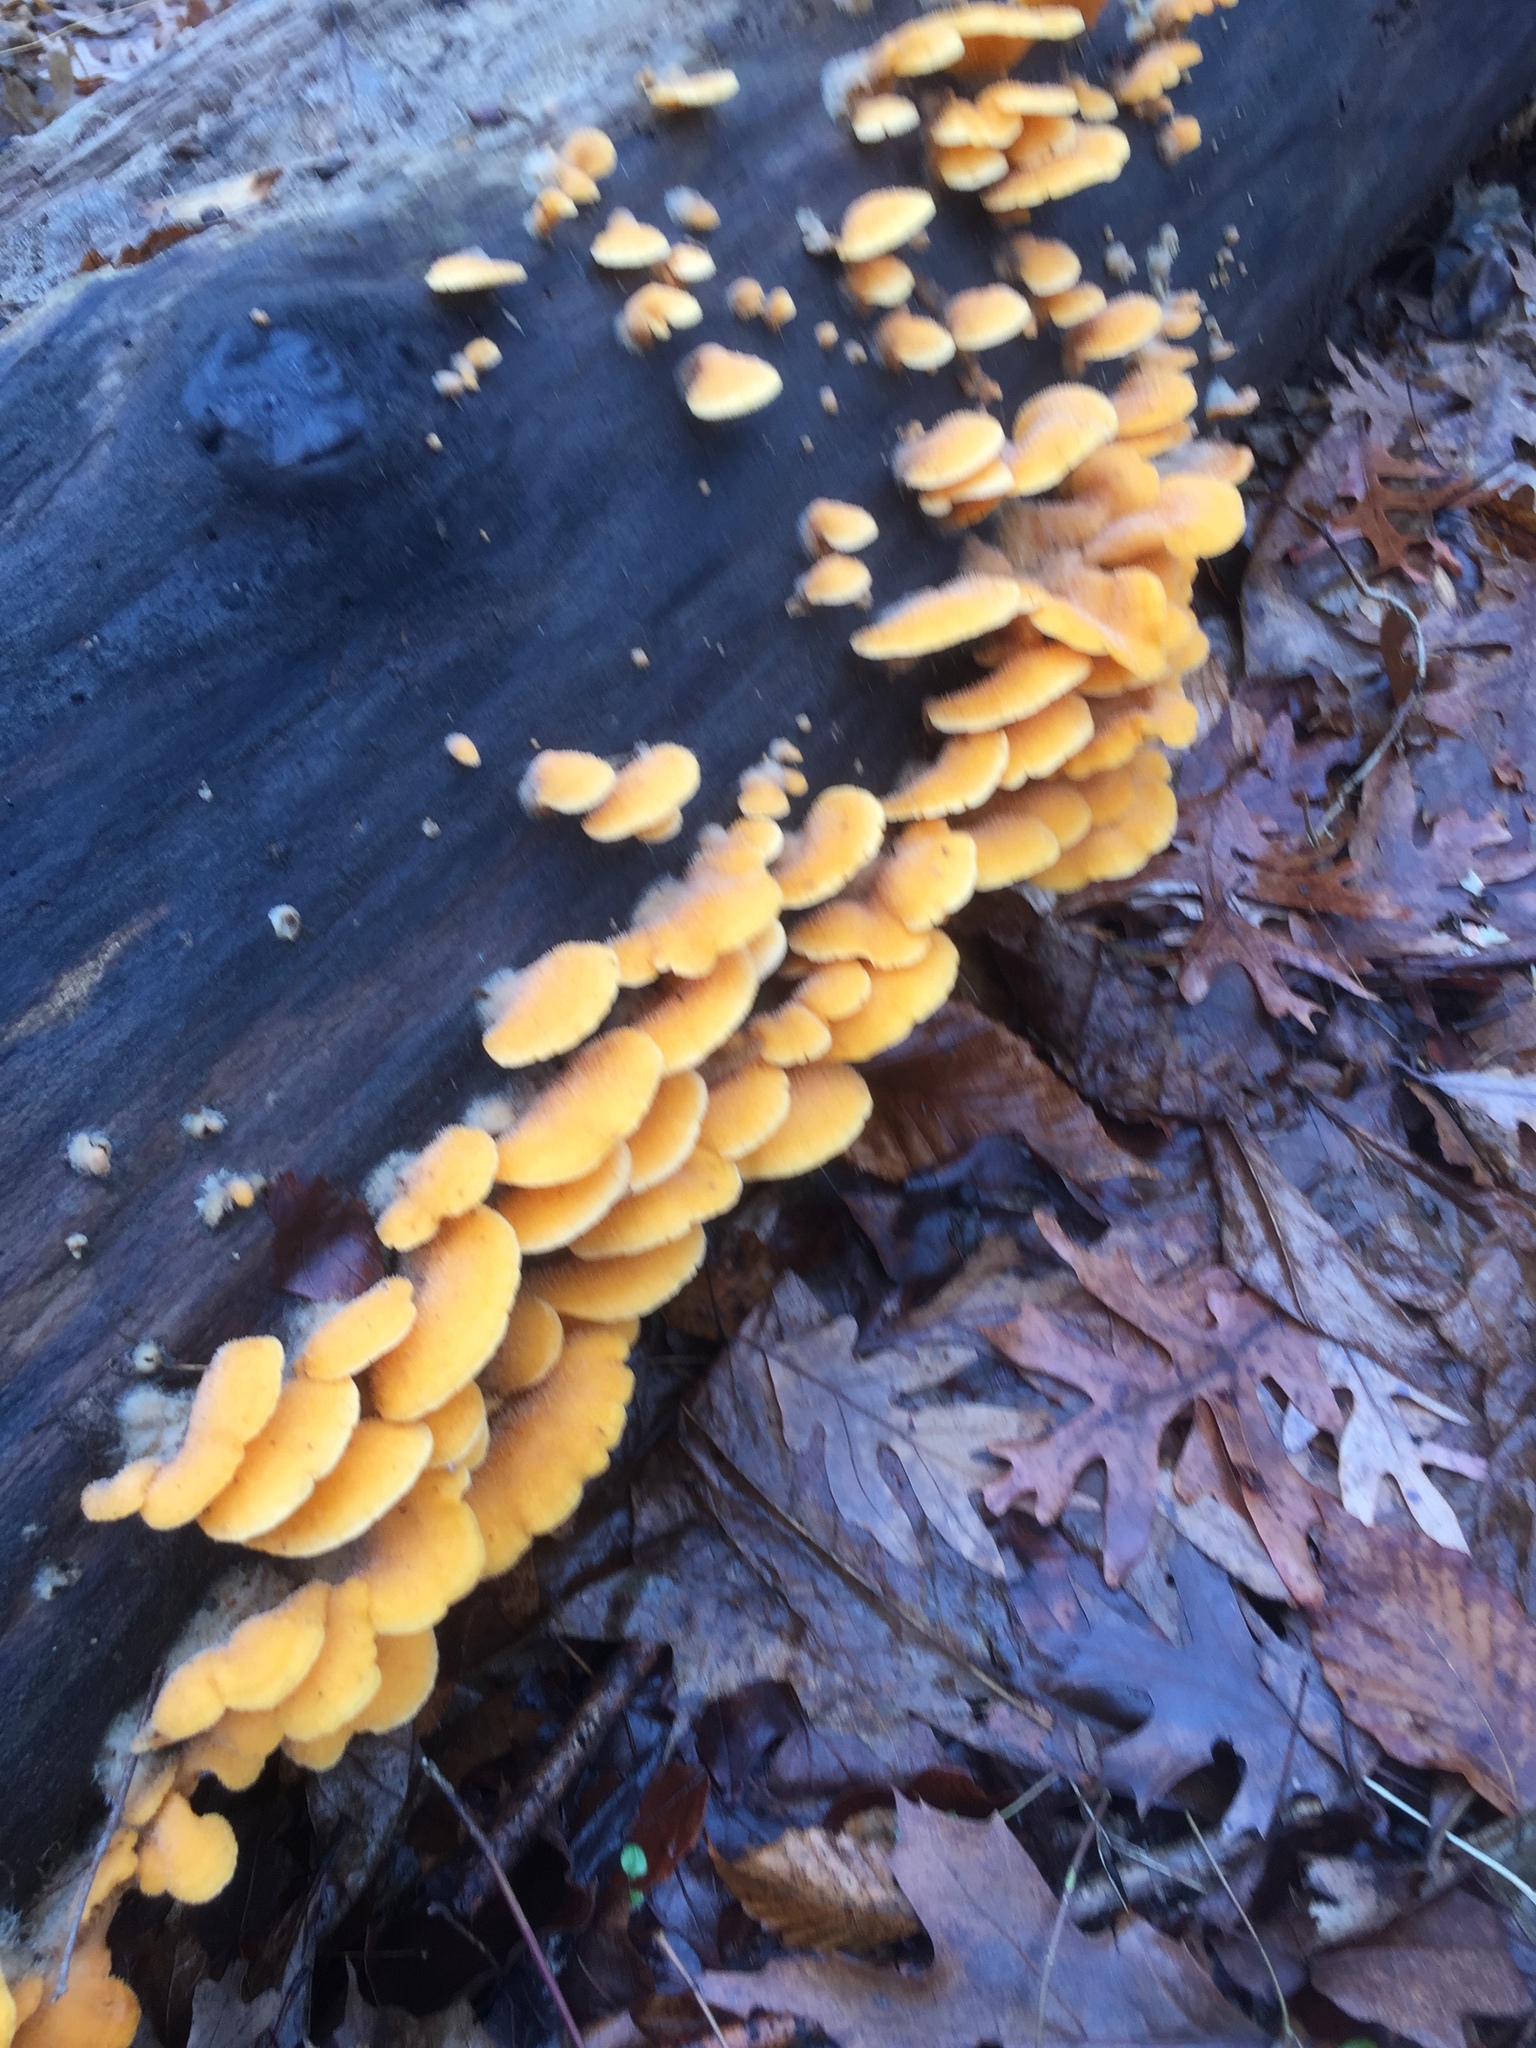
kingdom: Fungi
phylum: Basidiomycota
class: Agaricomycetes
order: Agaricales
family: Phyllotopsidaceae
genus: Phyllotopsis
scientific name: Phyllotopsis nidulans
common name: Orange mock oyster
